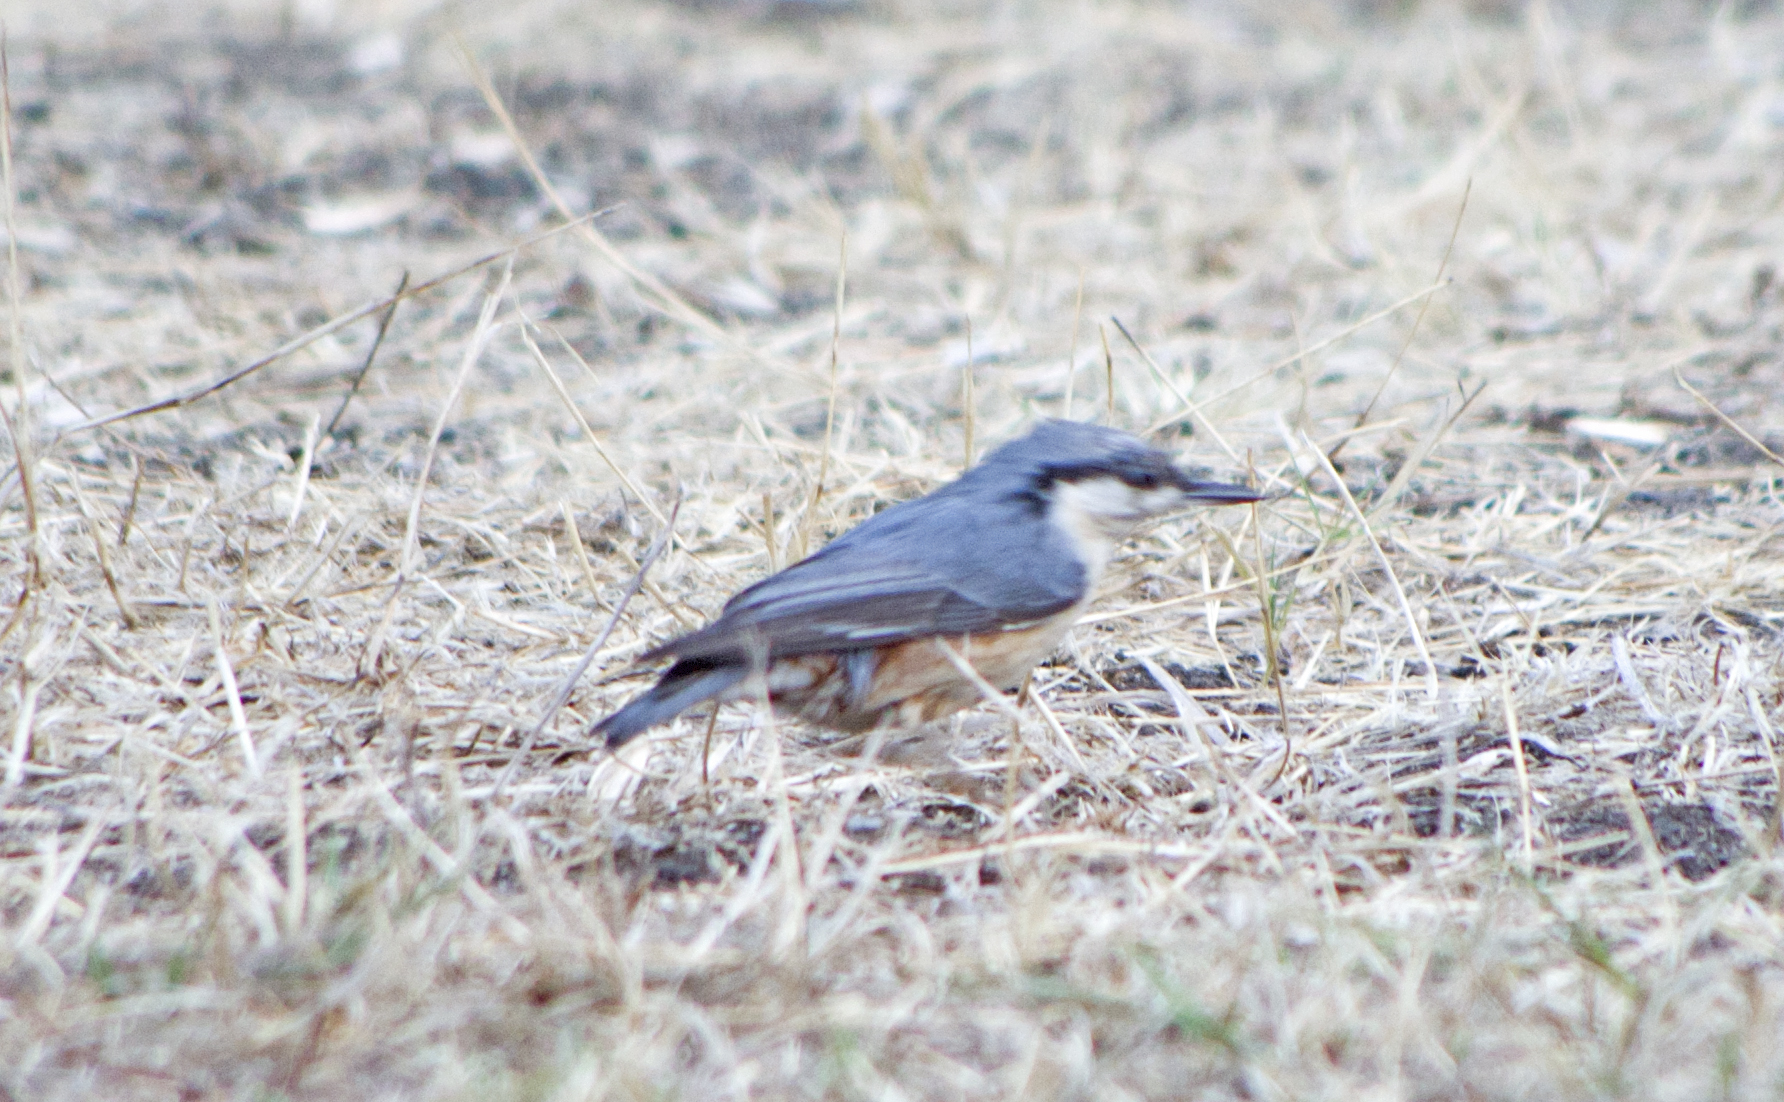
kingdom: Animalia
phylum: Chordata
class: Aves
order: Passeriformes
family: Sittidae
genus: Sitta
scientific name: Sitta europaea
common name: Eurasian nuthatch
